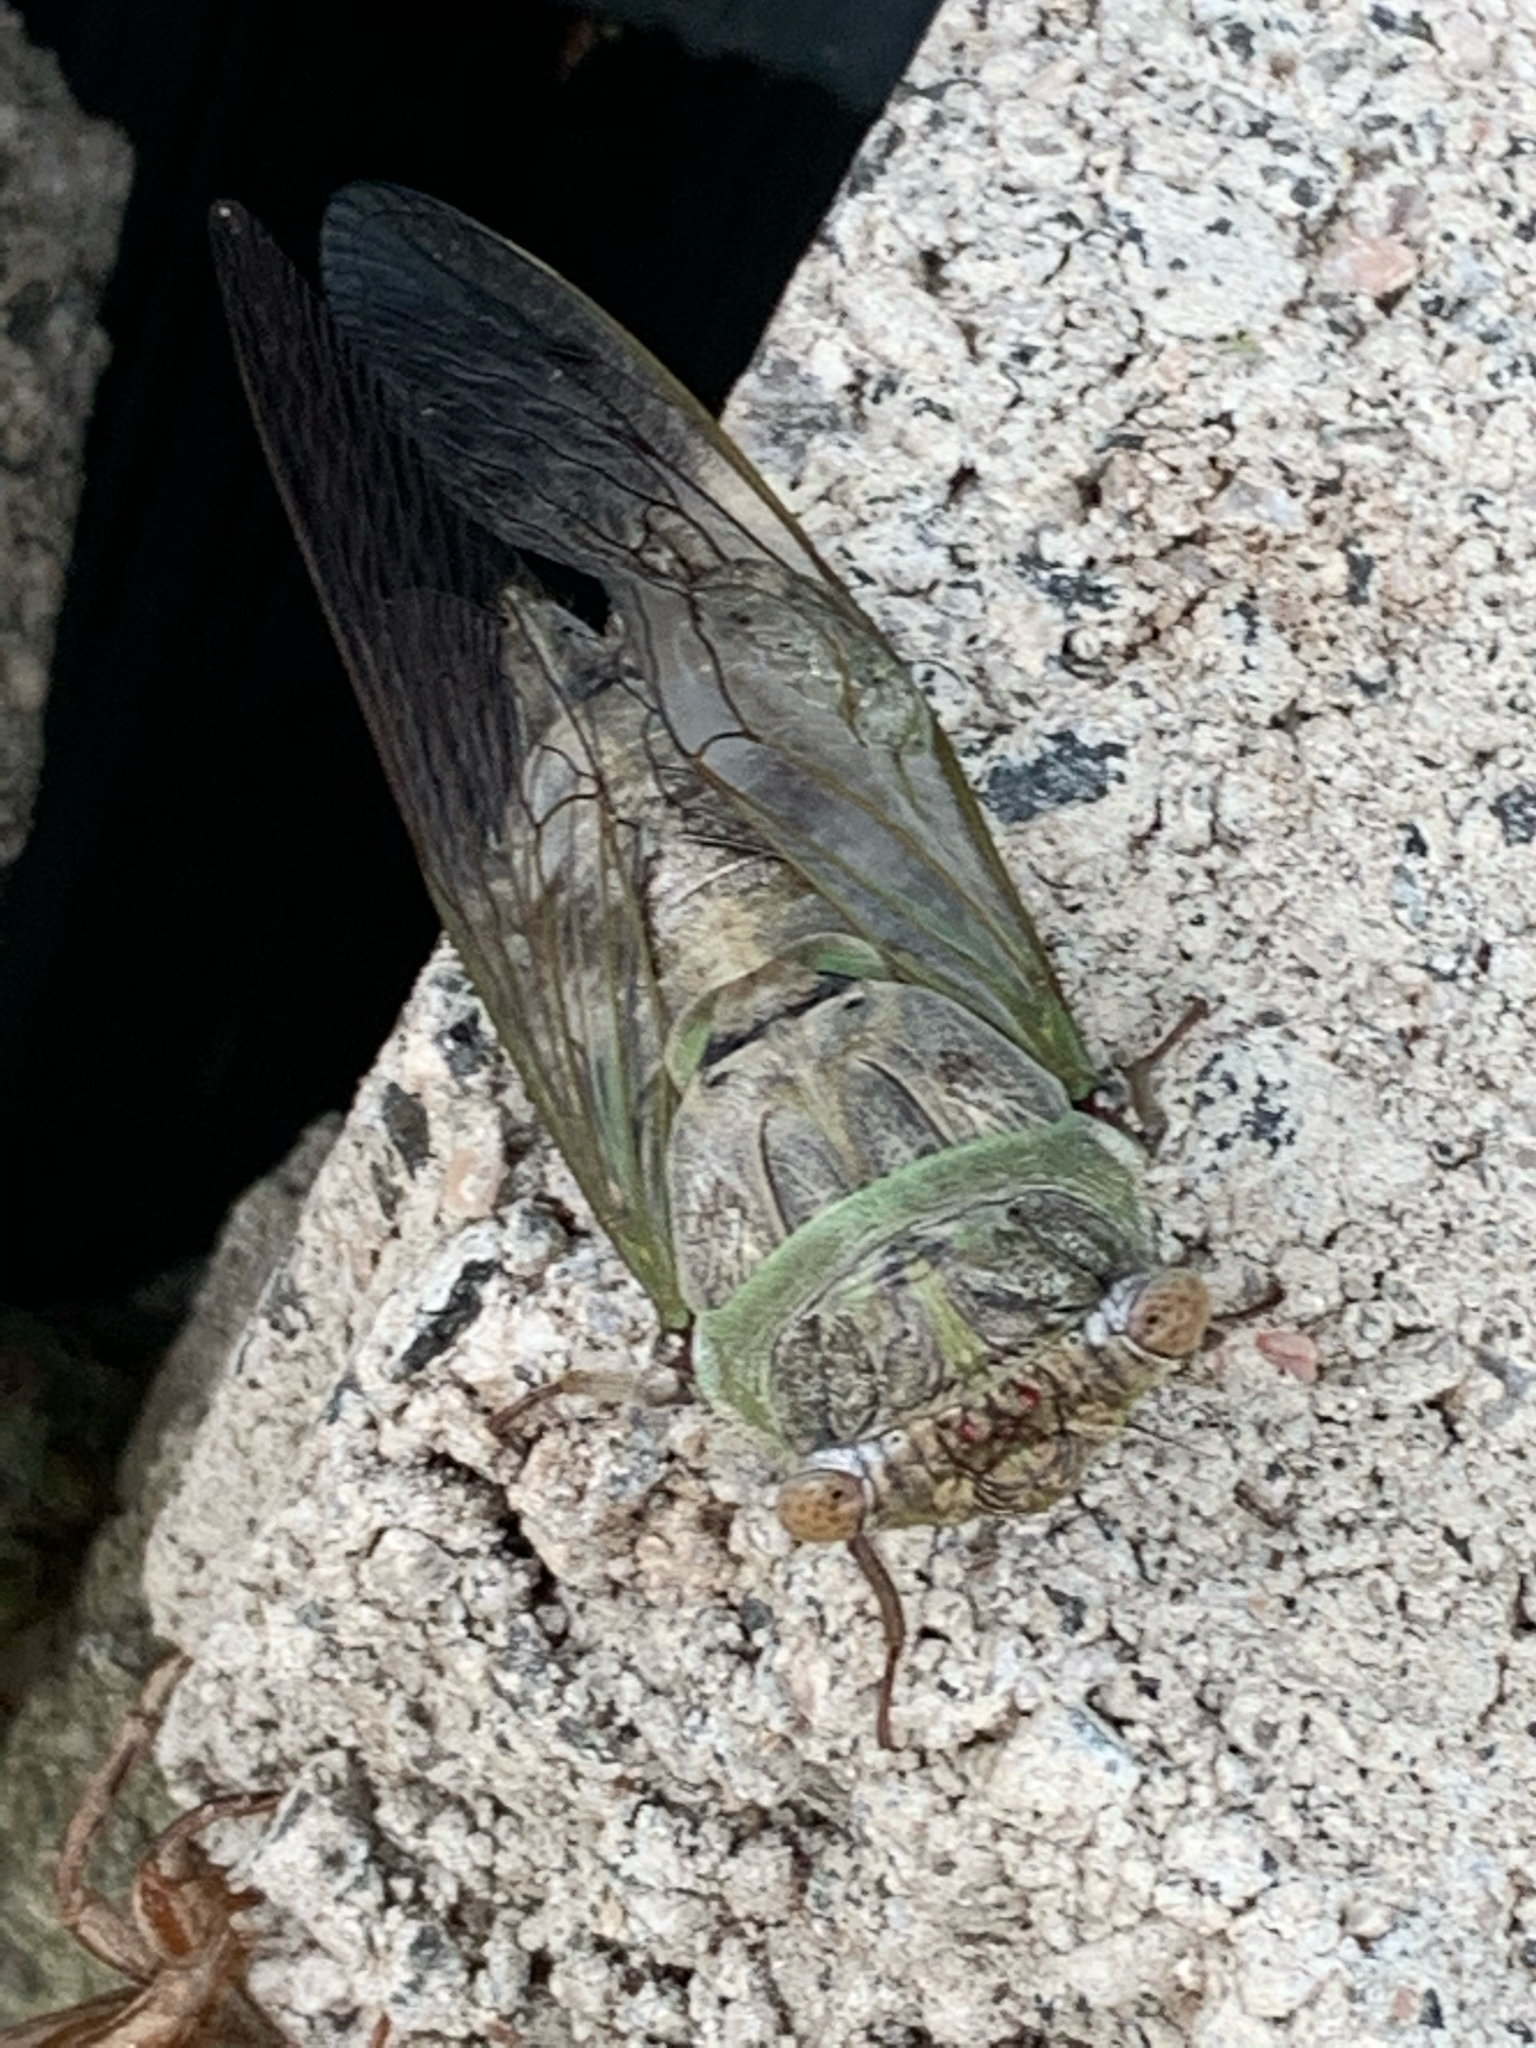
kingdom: Animalia
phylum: Arthropoda
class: Insecta
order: Hemiptera
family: Cicadidae
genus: Diceroprocta
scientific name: Diceroprocta grossa
